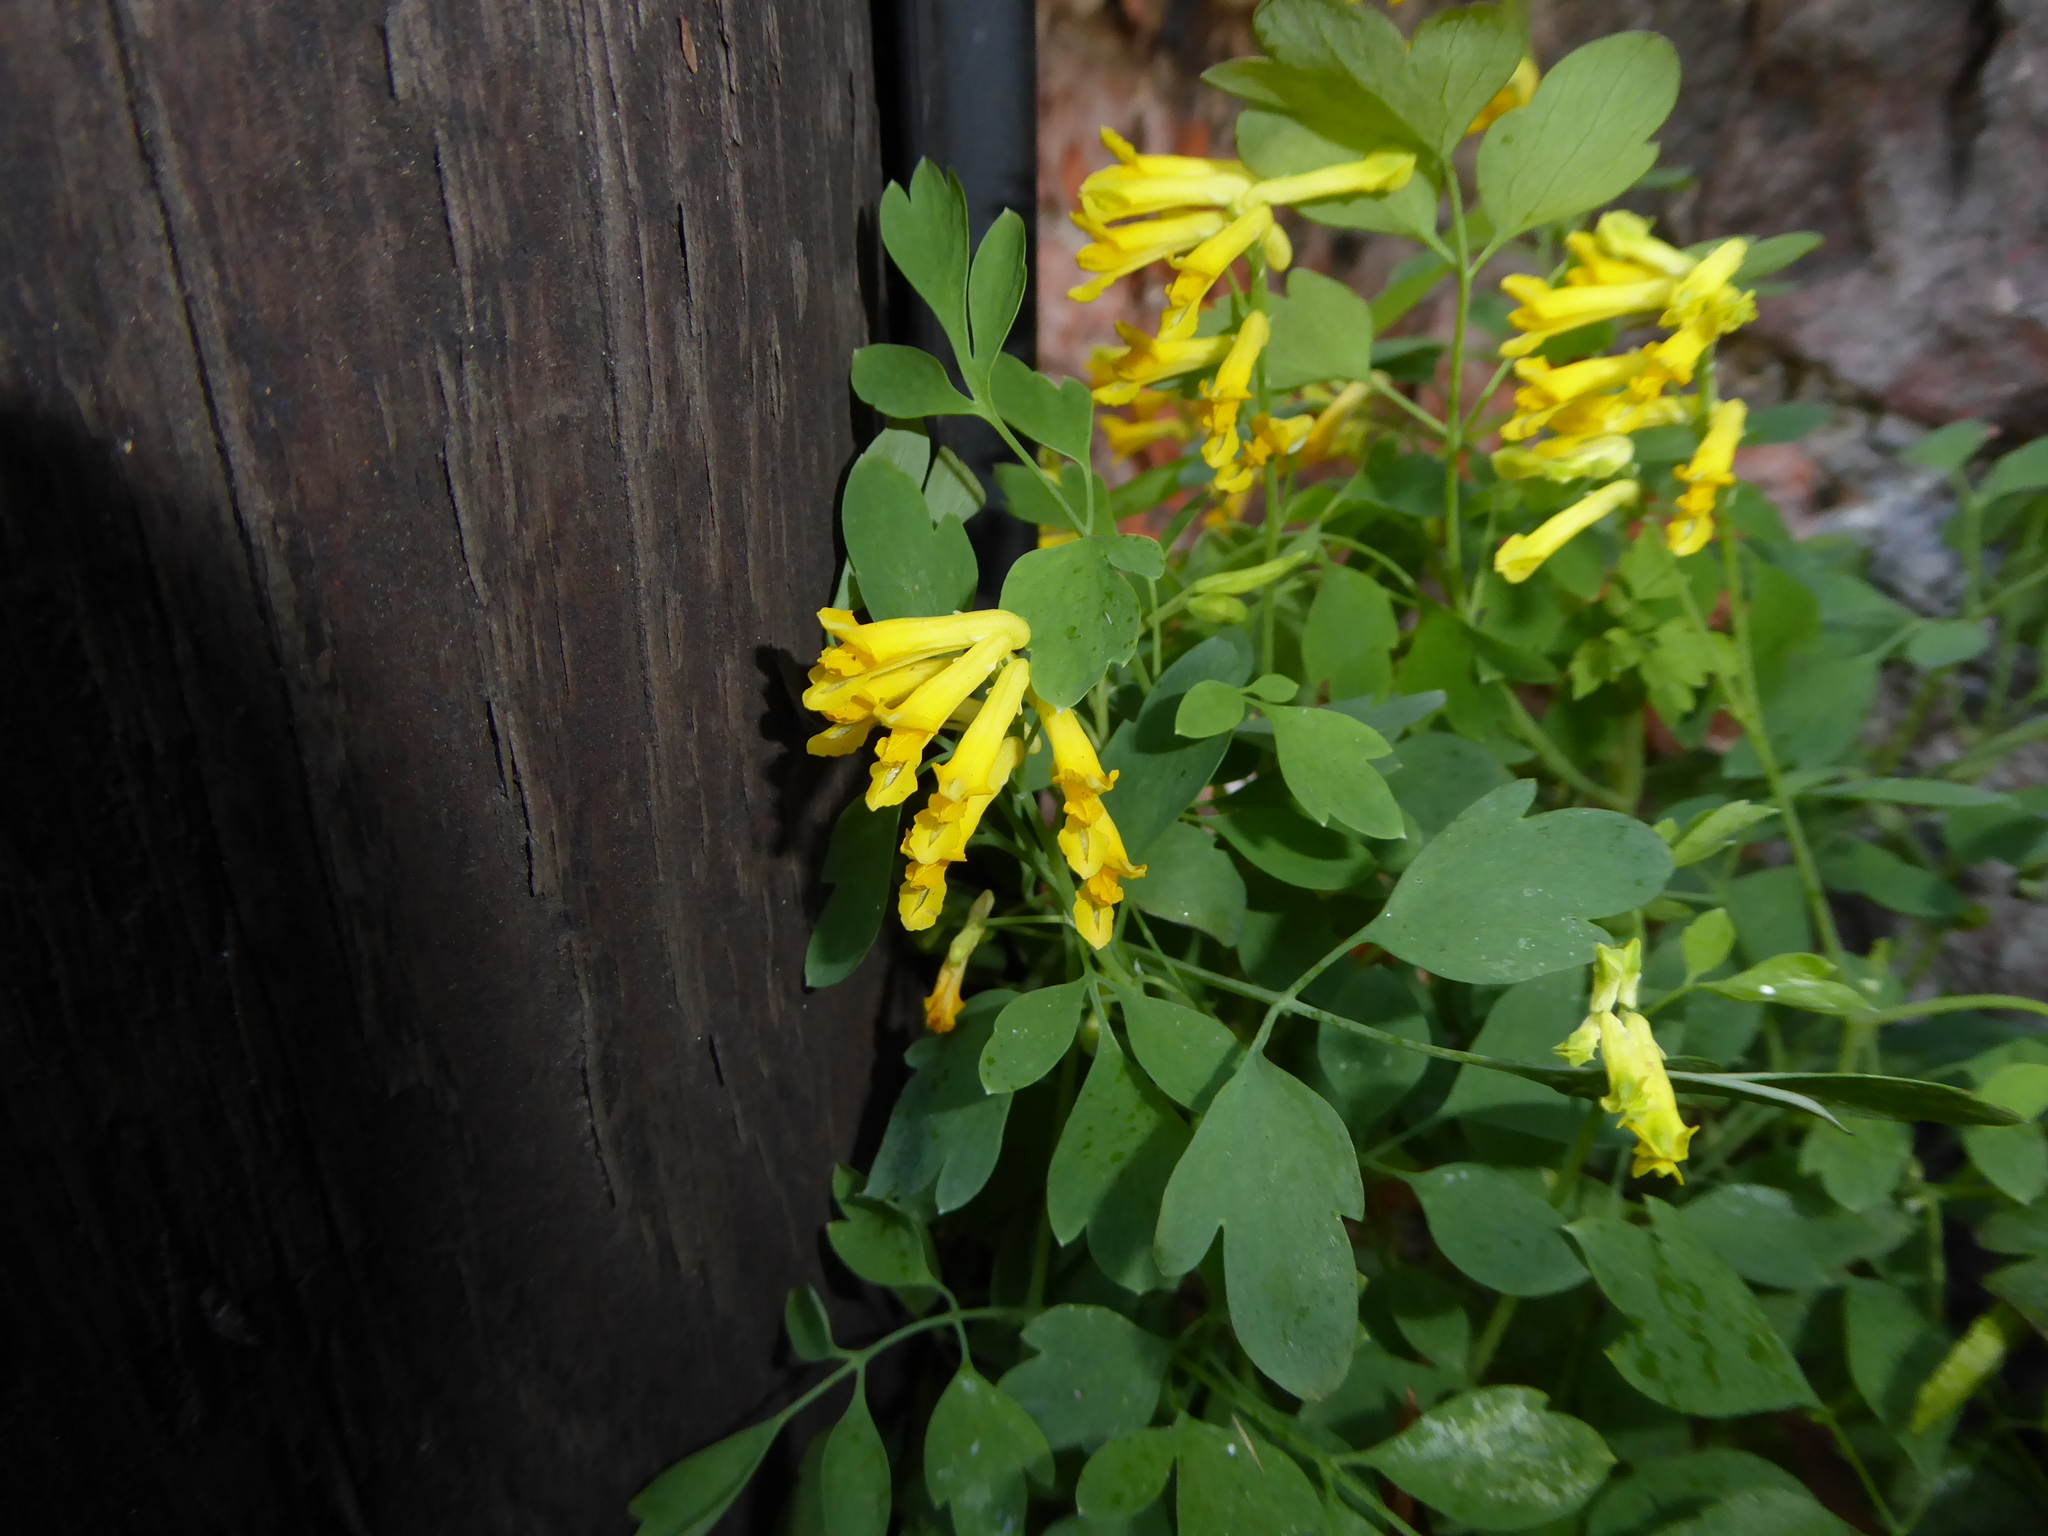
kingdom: Plantae
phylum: Tracheophyta
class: Magnoliopsida
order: Ranunculales
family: Papaveraceae
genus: Pseudofumaria
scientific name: Pseudofumaria lutea
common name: Yellow corydalis
